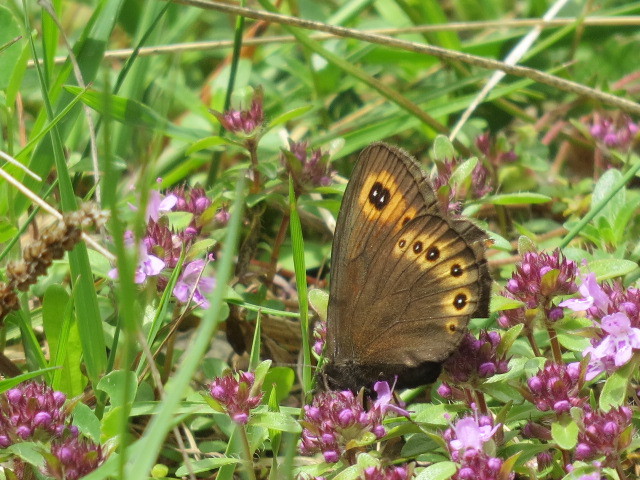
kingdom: Animalia
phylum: Arthropoda
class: Insecta
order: Lepidoptera
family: Nymphalidae
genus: Erebia
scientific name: Erebia medusa
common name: Woodland ringlet
